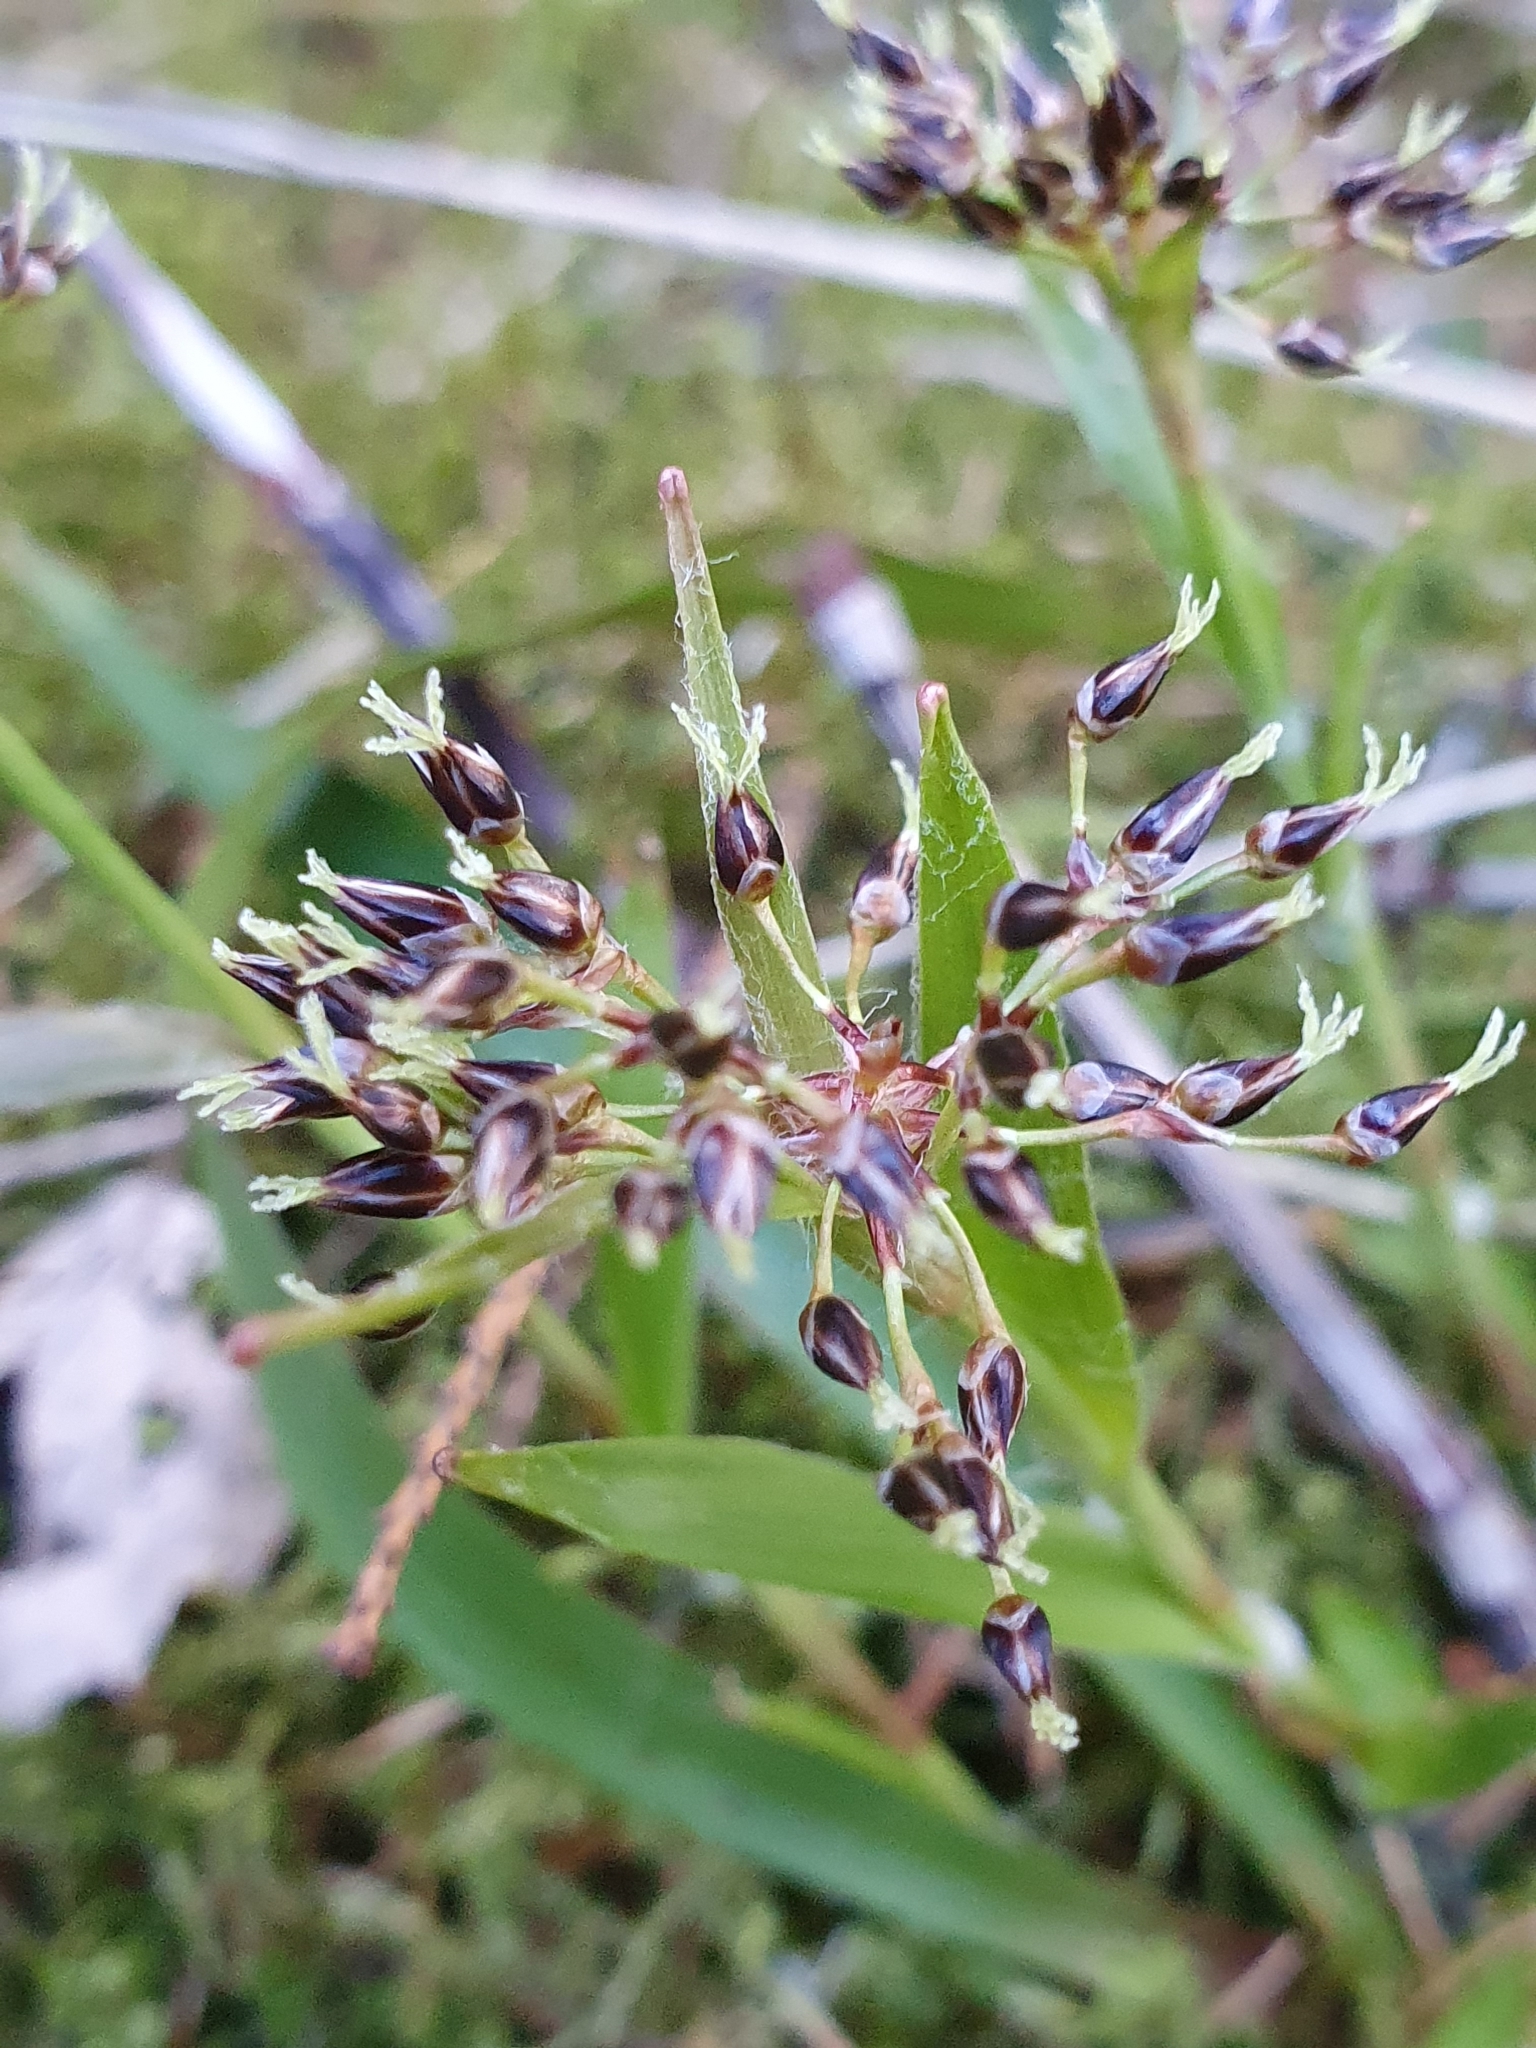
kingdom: Plantae
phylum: Tracheophyta
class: Liliopsida
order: Poales
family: Juncaceae
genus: Luzula
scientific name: Luzula pilosa
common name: Hairy wood-rush
